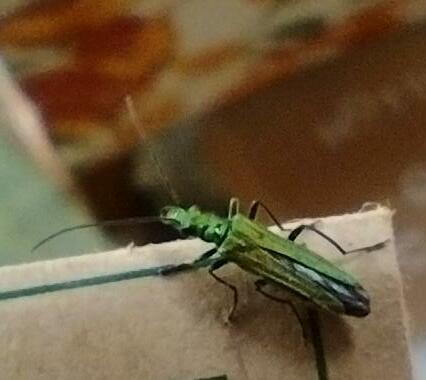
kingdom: Animalia
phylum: Arthropoda
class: Insecta
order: Coleoptera
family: Oedemeridae
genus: Oedemera
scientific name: Oedemera nobilis
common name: Swollen-thighed beetle
